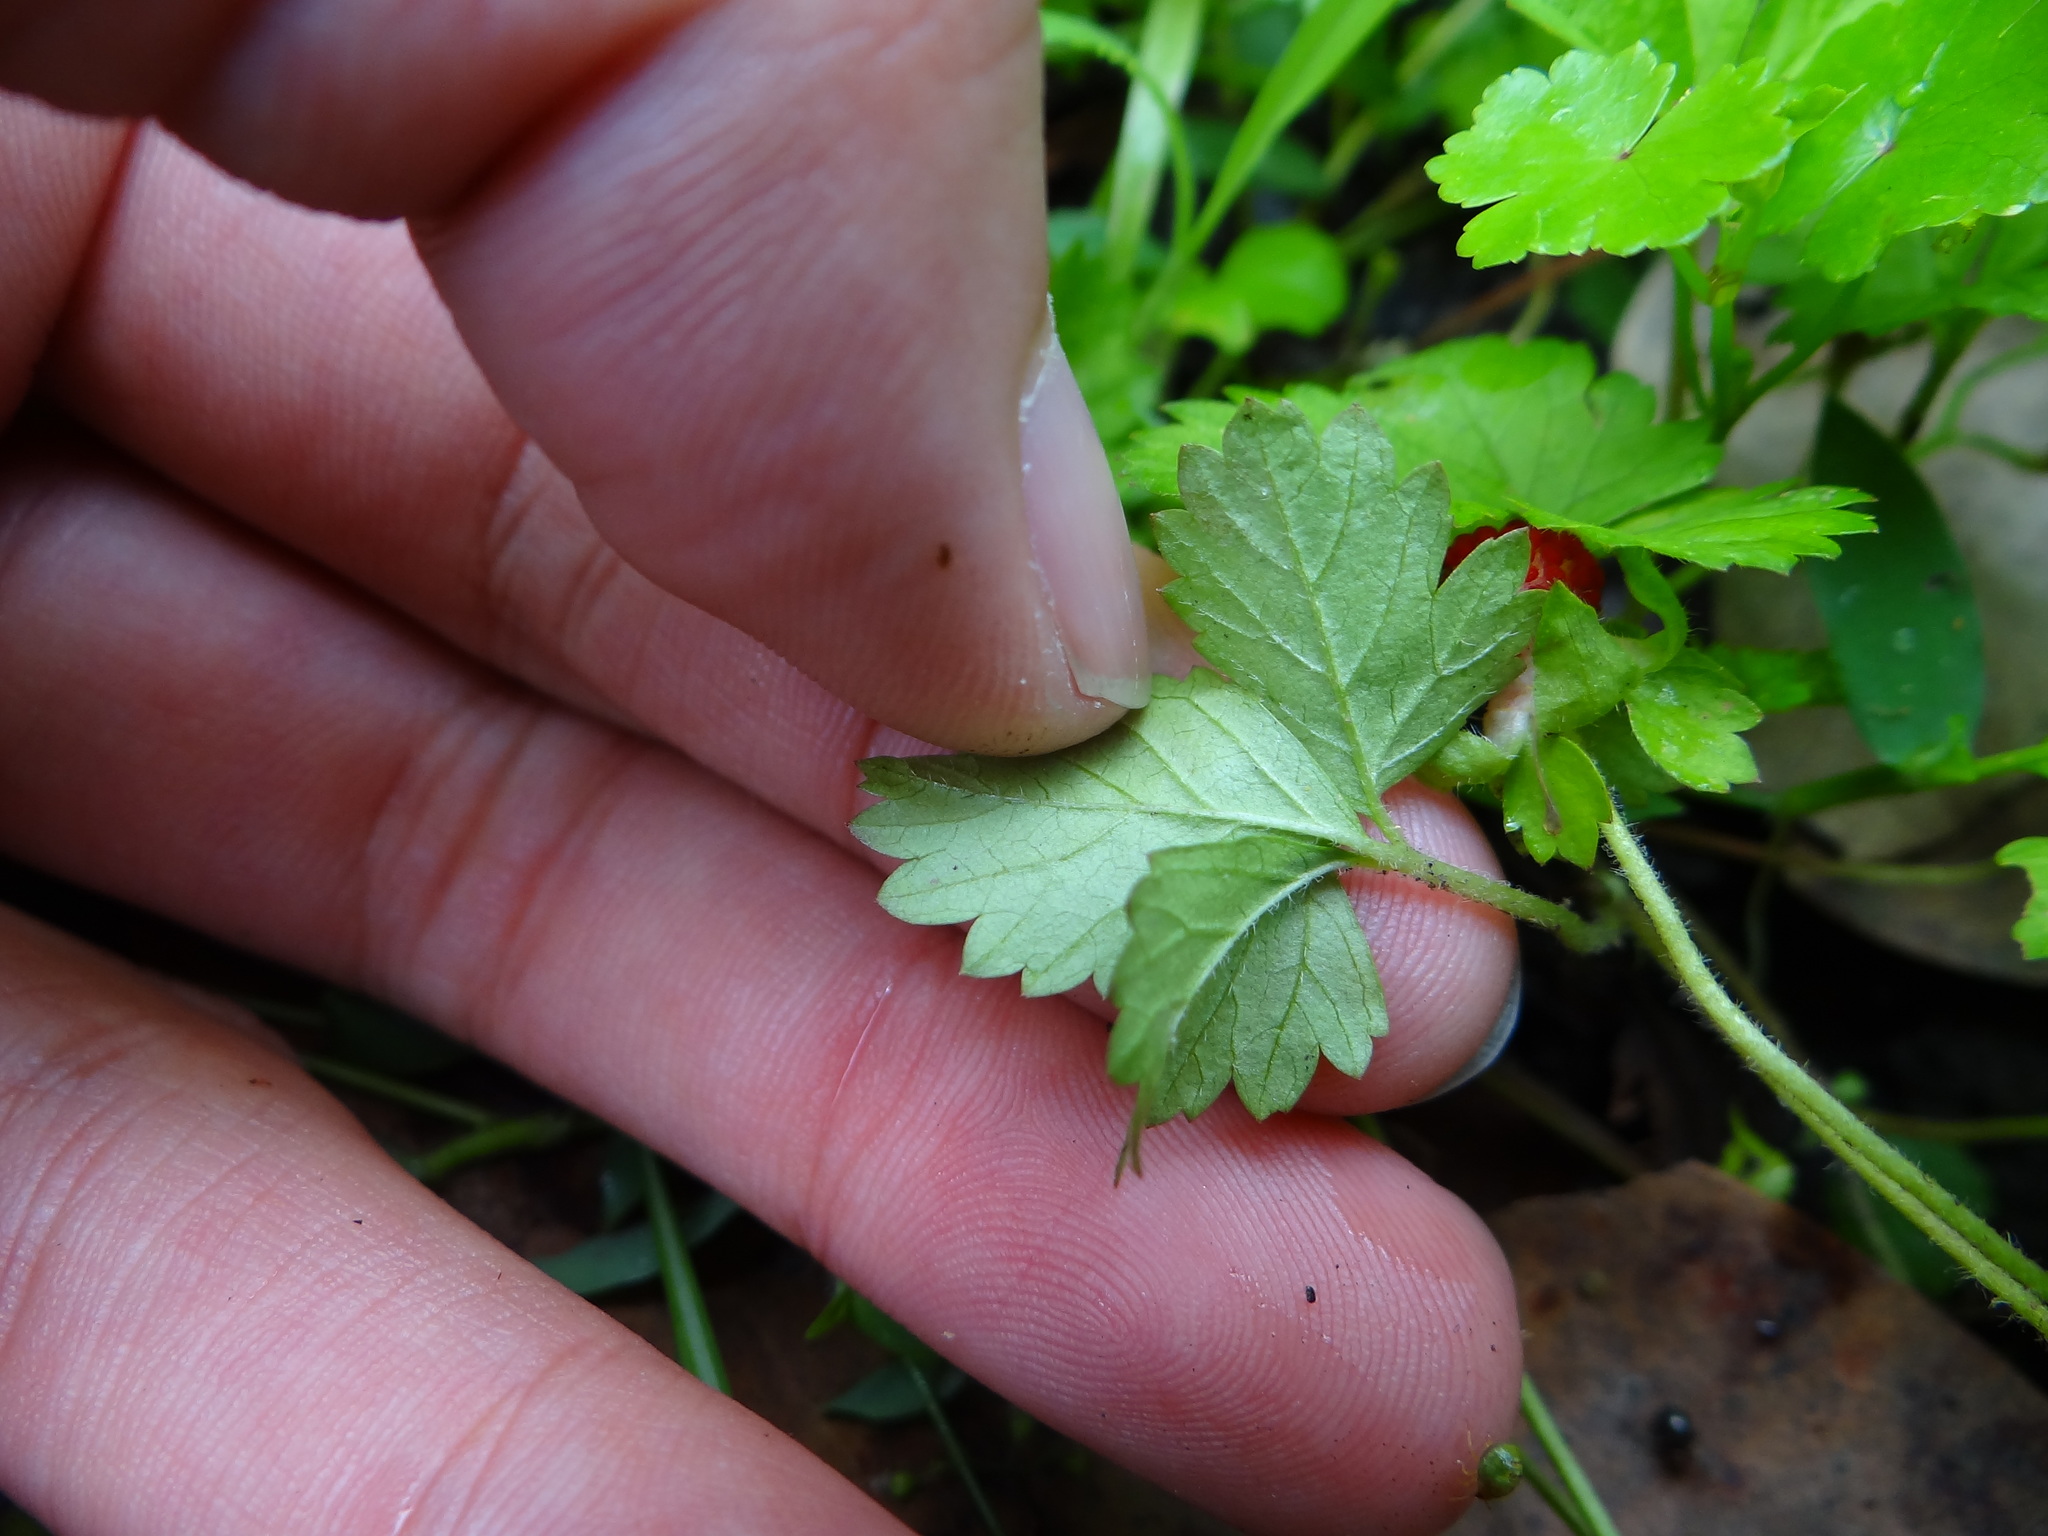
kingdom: Plantae
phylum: Tracheophyta
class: Magnoliopsida
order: Rosales
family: Rosaceae
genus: Potentilla
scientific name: Potentilla wallichiana
